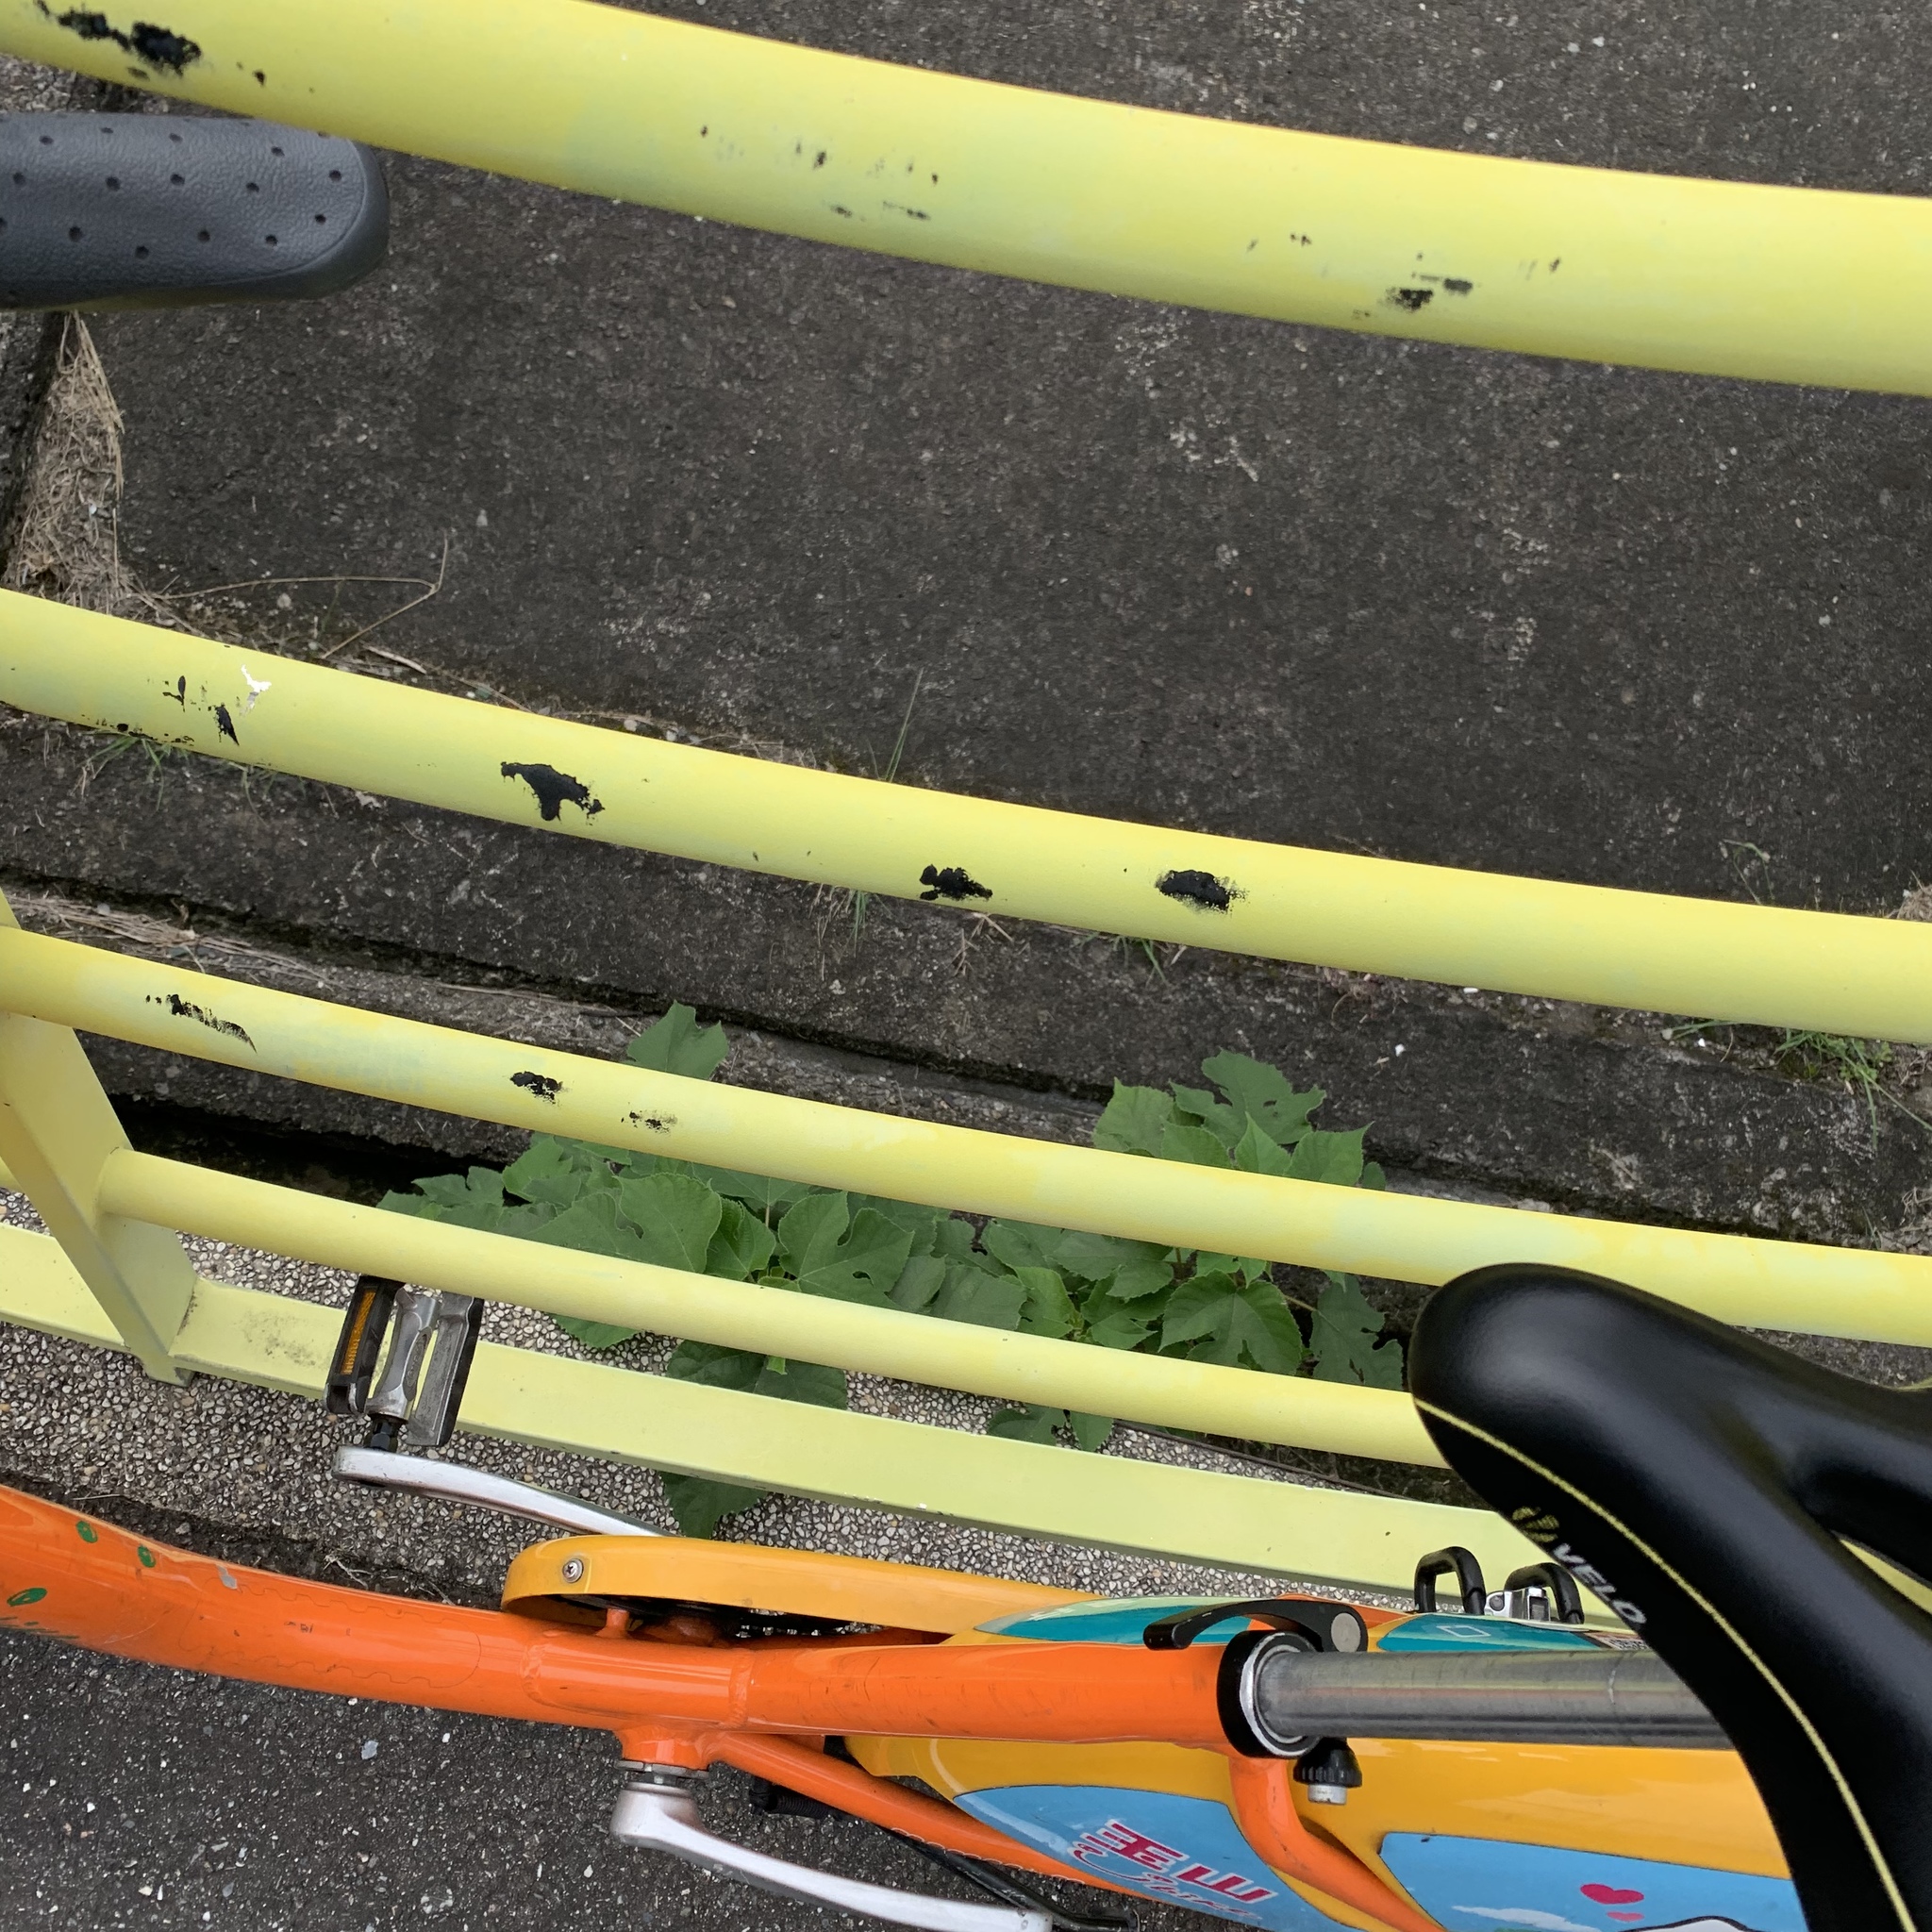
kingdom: Plantae
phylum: Tracheophyta
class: Magnoliopsida
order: Rosales
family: Moraceae
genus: Broussonetia
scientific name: Broussonetia papyrifera
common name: Paper mulberry
